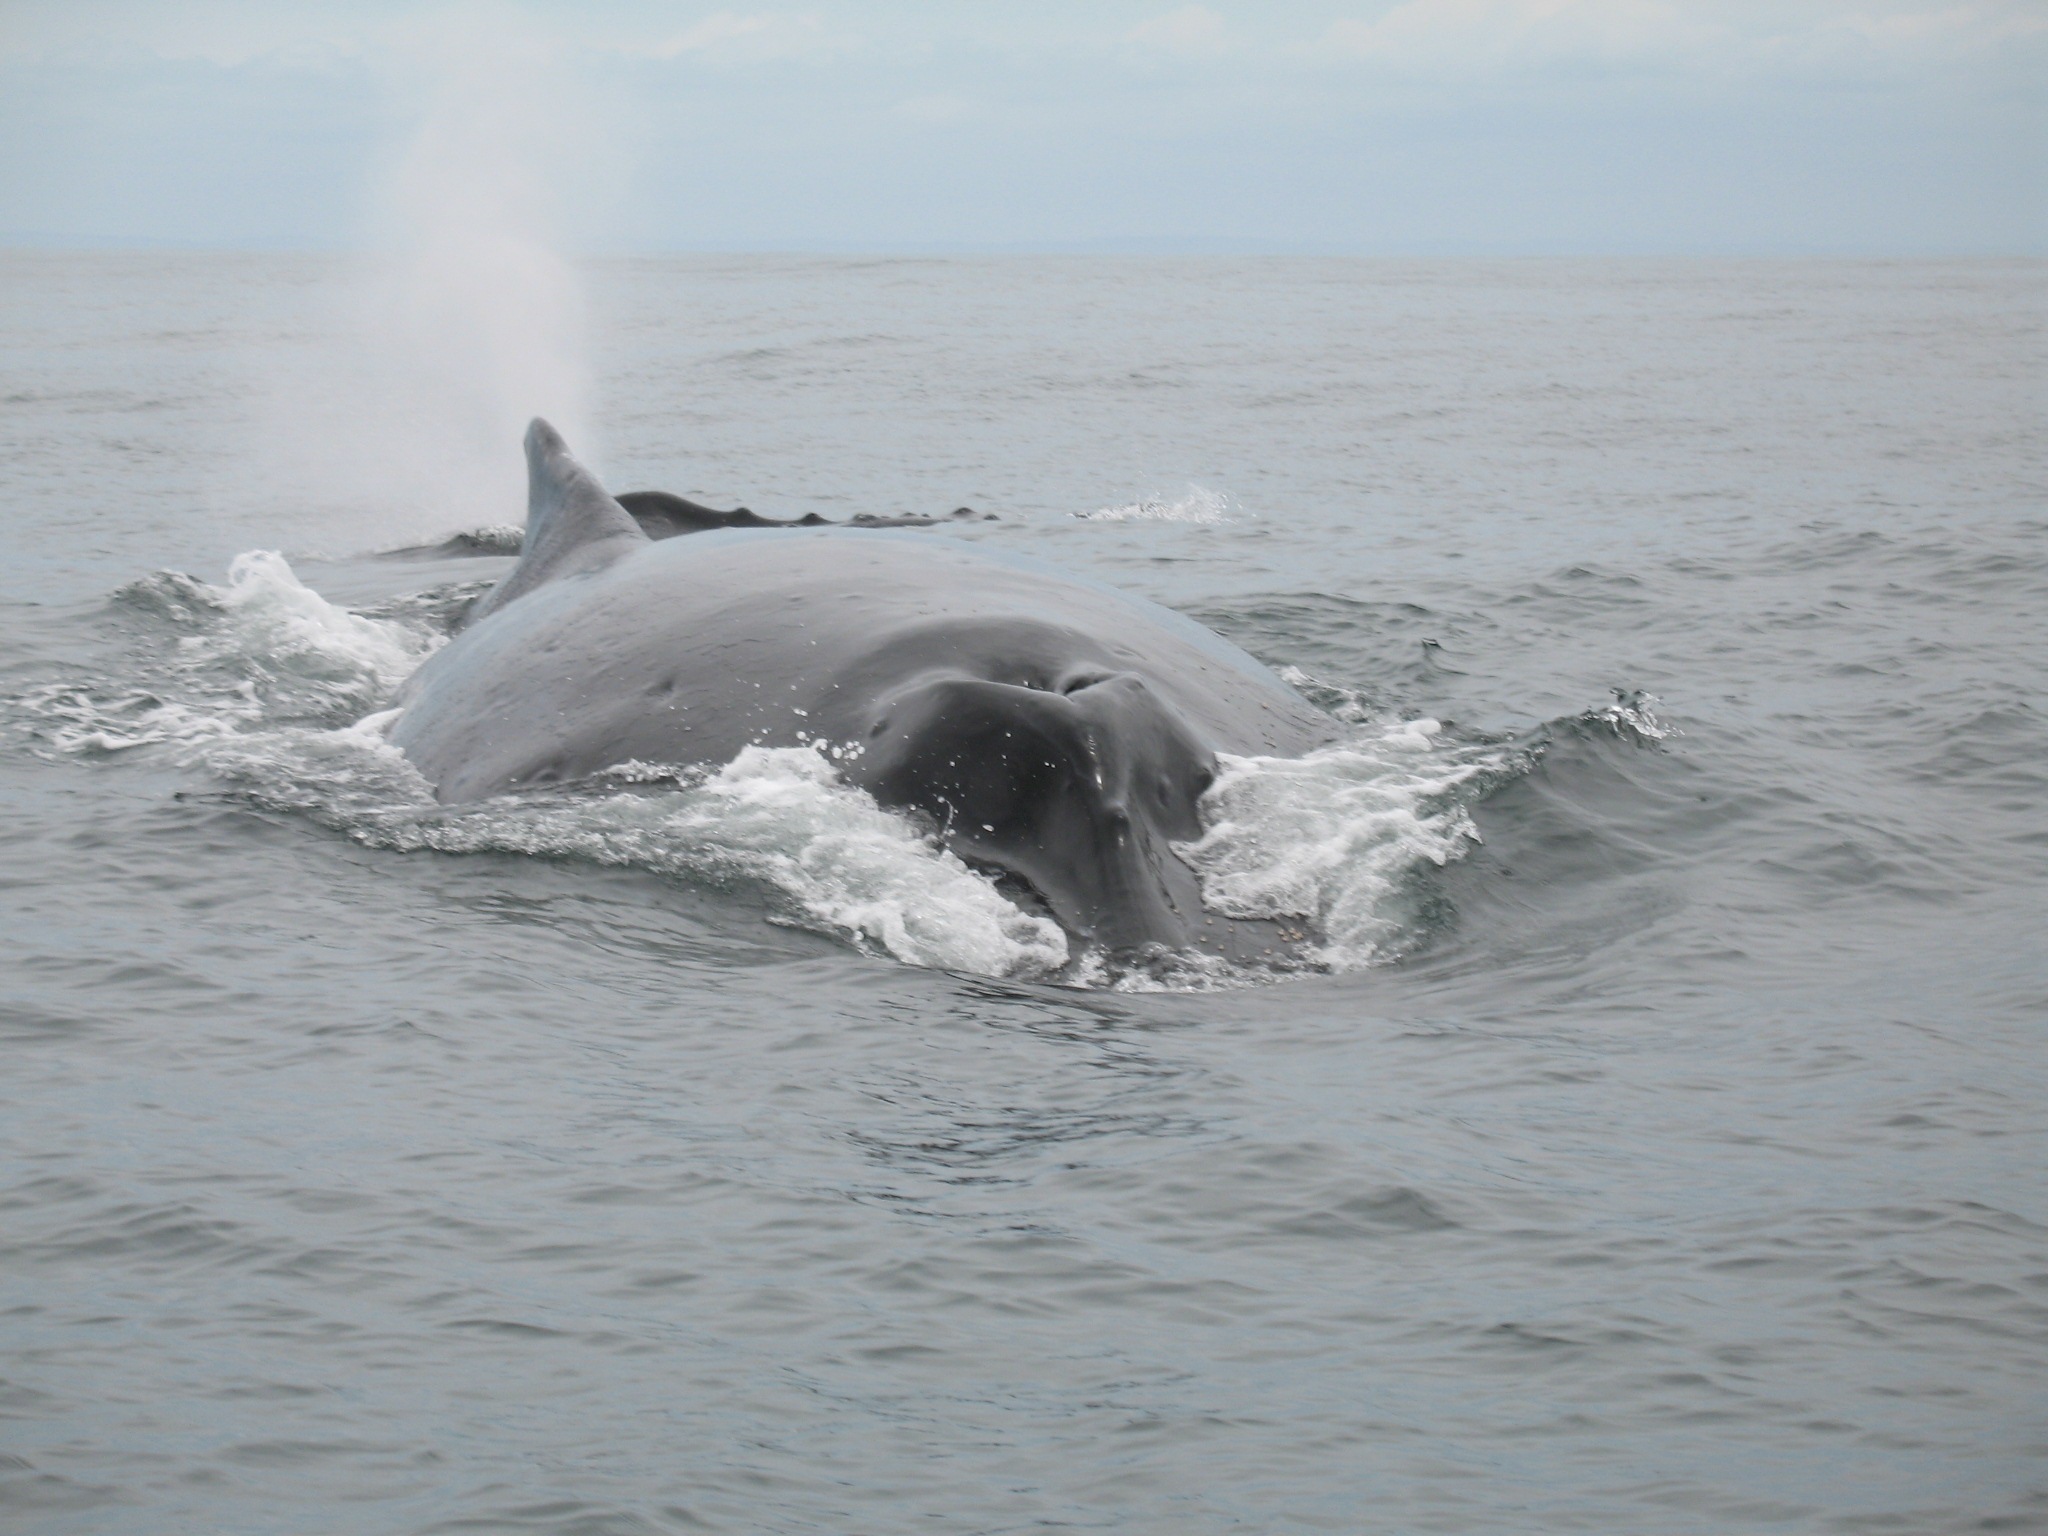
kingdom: Animalia
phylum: Chordata
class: Mammalia
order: Cetacea
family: Balaenopteridae
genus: Megaptera
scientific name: Megaptera novaeangliae
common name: Humpback whale
